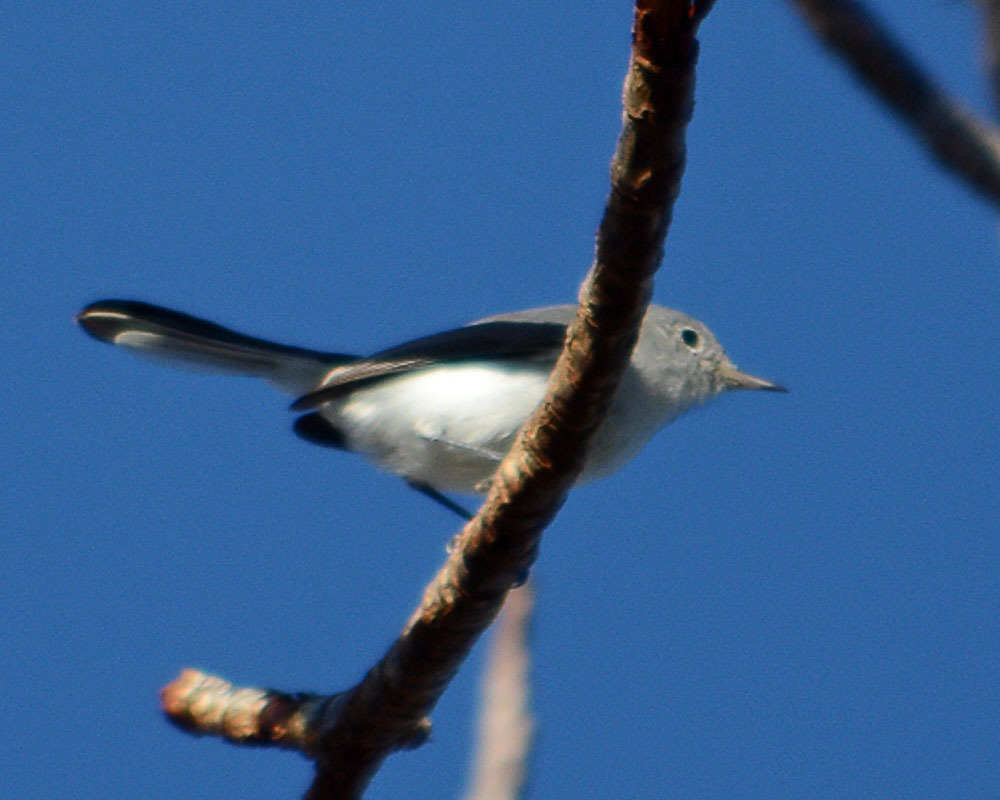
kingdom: Animalia
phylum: Chordata
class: Aves
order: Passeriformes
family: Polioptilidae
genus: Polioptila
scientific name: Polioptila caerulea
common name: Blue-gray gnatcatcher
